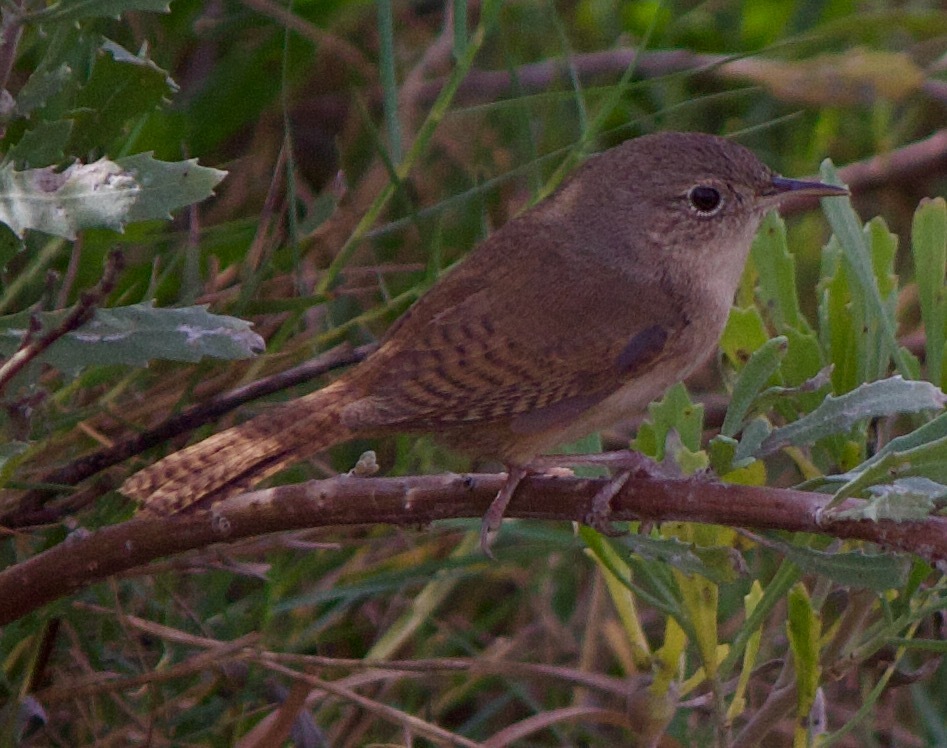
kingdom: Animalia
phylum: Chordata
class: Aves
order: Passeriformes
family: Troglodytidae
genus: Troglodytes
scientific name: Troglodytes aedon
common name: House wren
